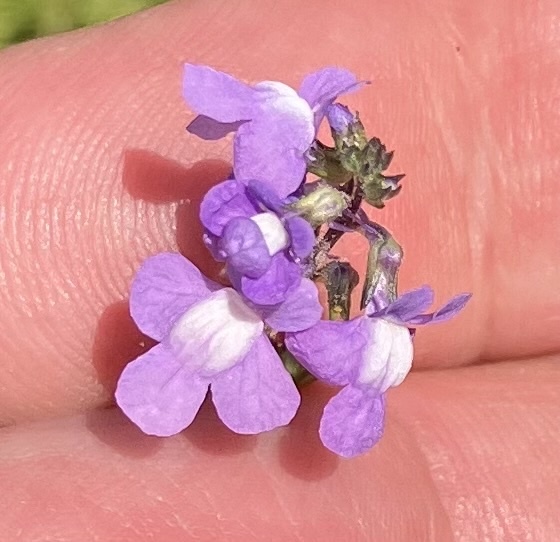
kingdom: Plantae
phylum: Tracheophyta
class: Magnoliopsida
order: Lamiales
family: Plantaginaceae
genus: Nuttallanthus
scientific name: Nuttallanthus canadensis
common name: Blue toadflax
